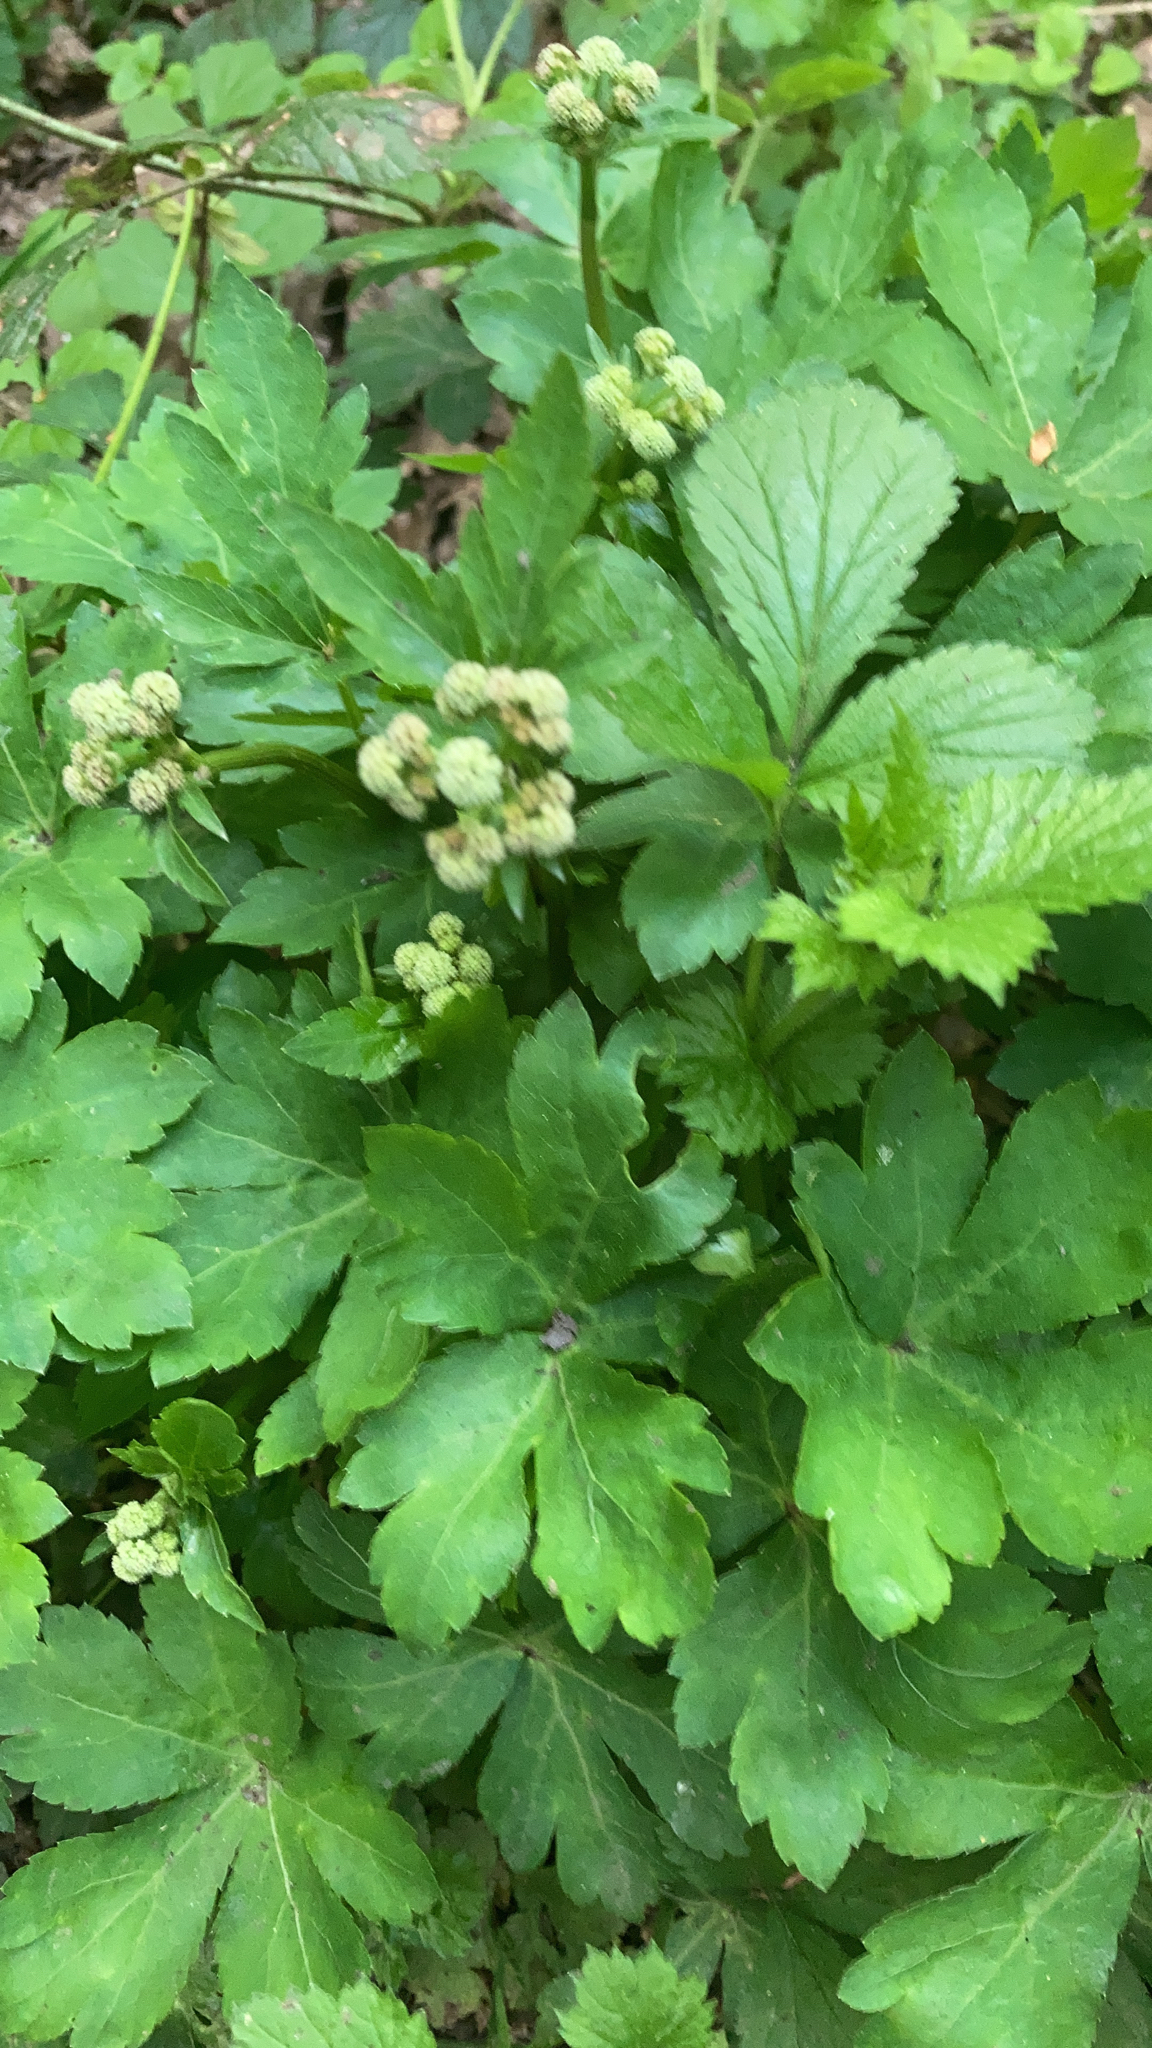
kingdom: Plantae
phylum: Tracheophyta
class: Magnoliopsida
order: Apiales
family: Apiaceae
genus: Sanicula
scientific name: Sanicula europaea
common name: Sanicle
